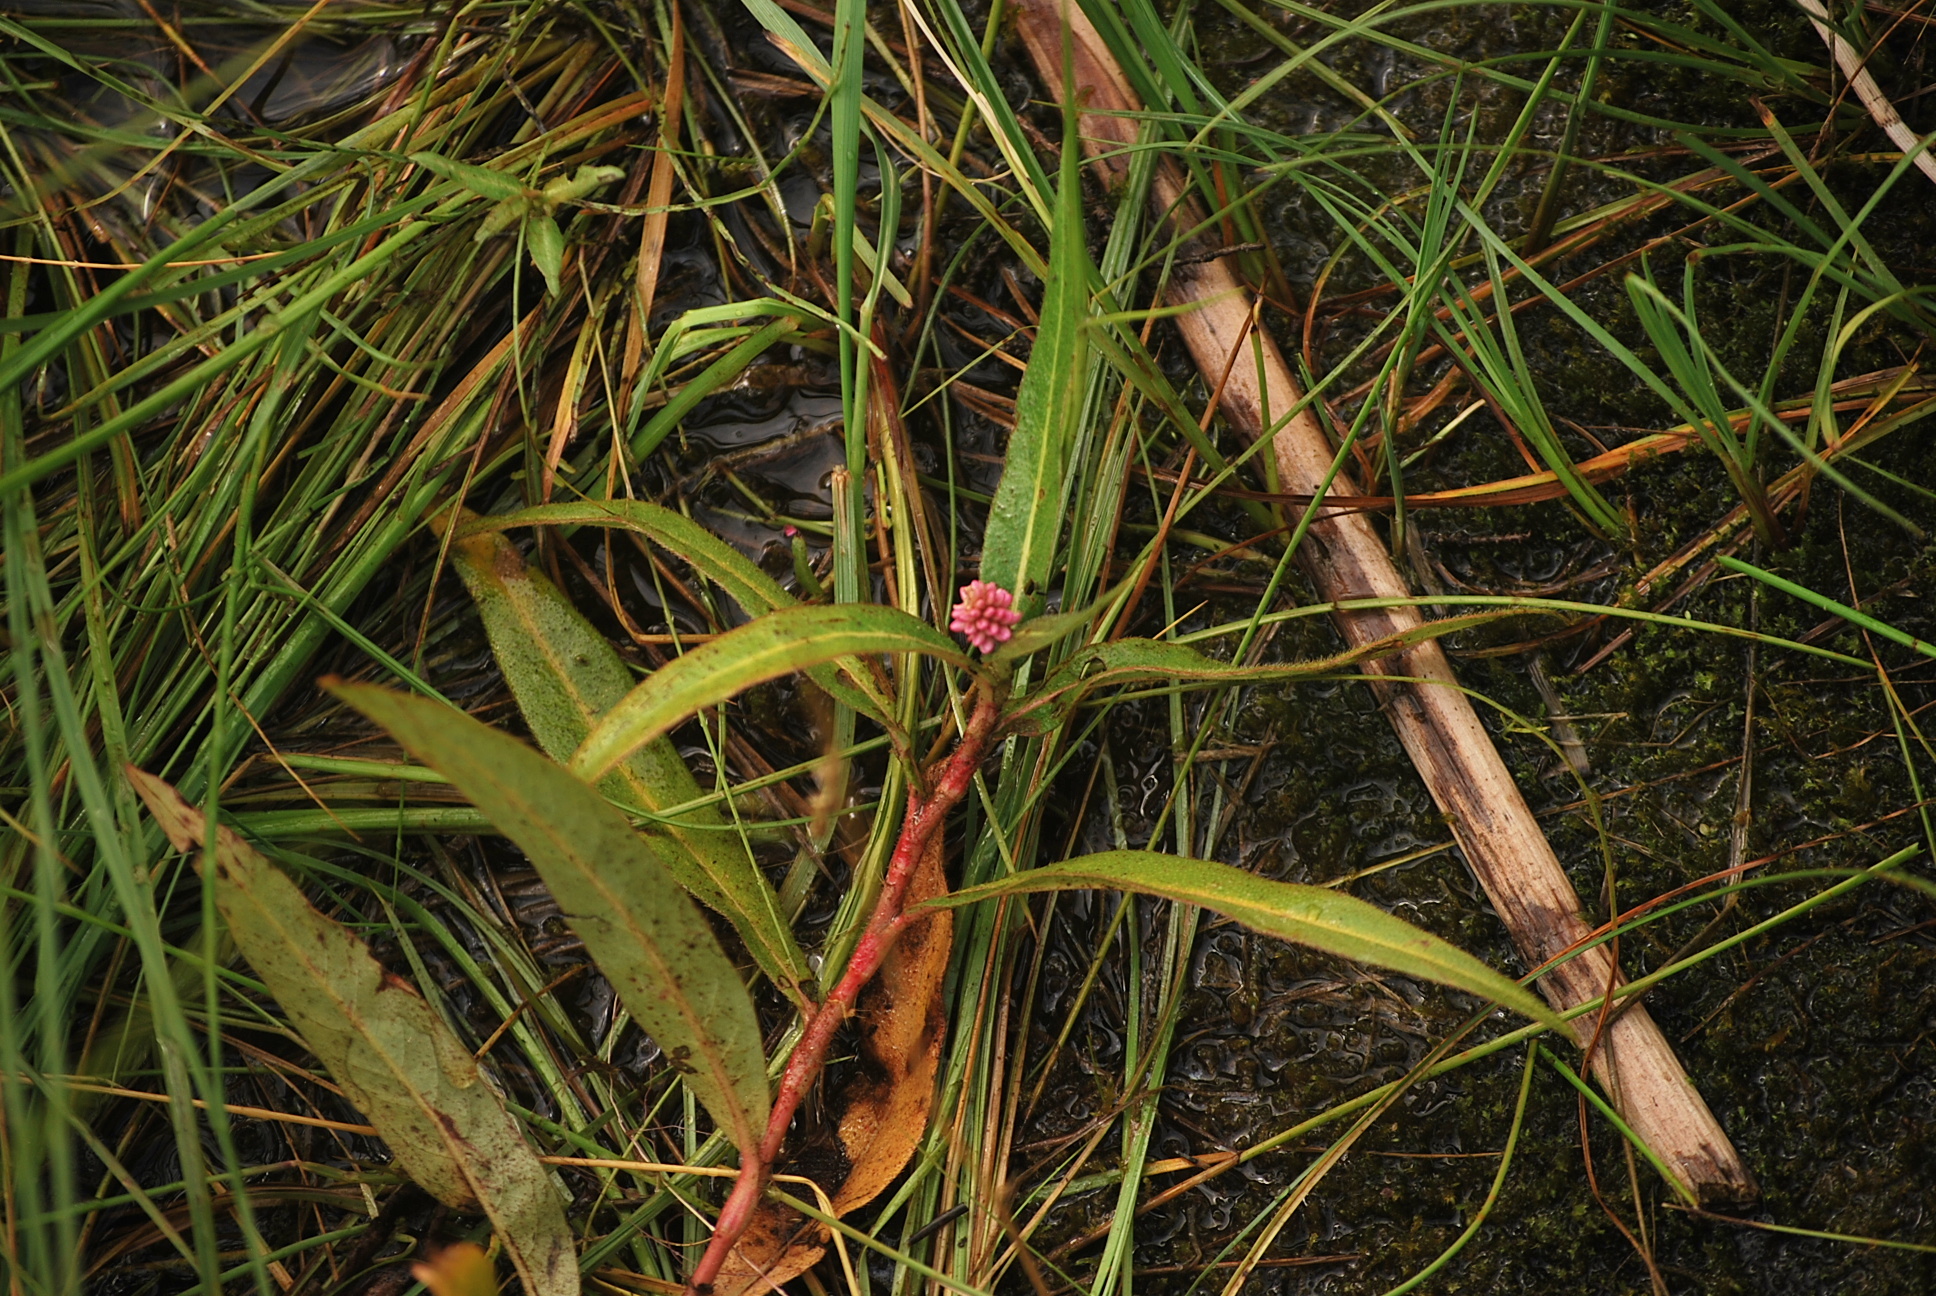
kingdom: Plantae
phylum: Tracheophyta
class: Magnoliopsida
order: Caryophyllales
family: Polygonaceae
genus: Persicaria
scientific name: Persicaria amphibia
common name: Amphibious bistort
